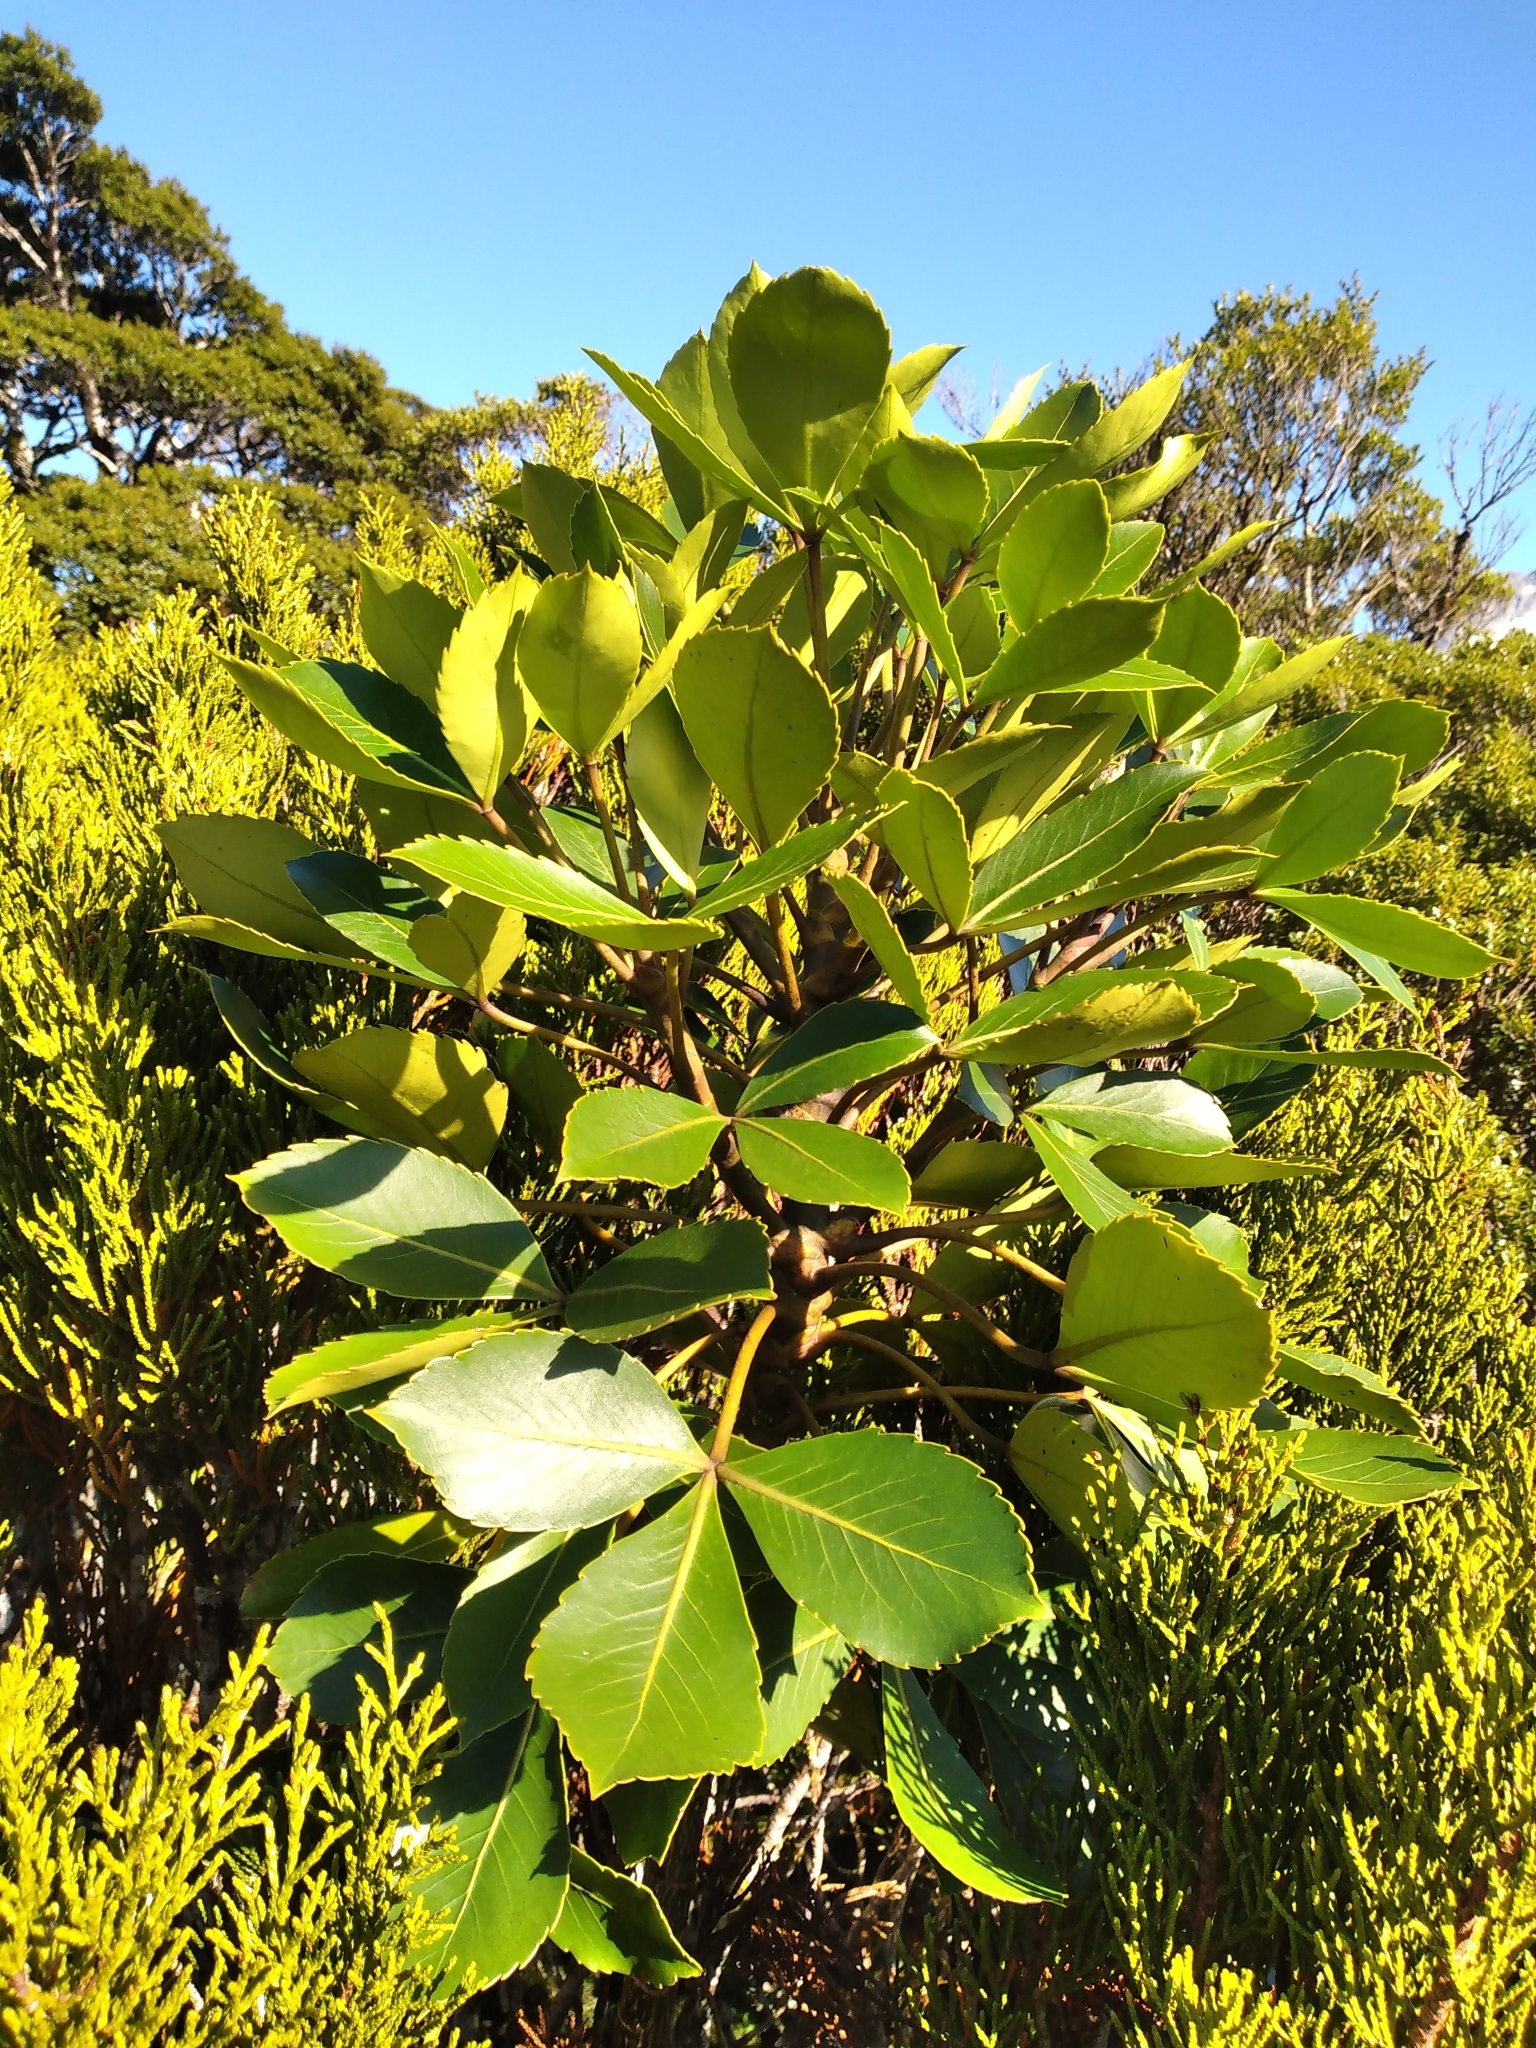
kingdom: Plantae
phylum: Tracheophyta
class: Magnoliopsida
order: Apiales
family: Araliaceae
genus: Neopanax
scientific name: Neopanax colensoi
